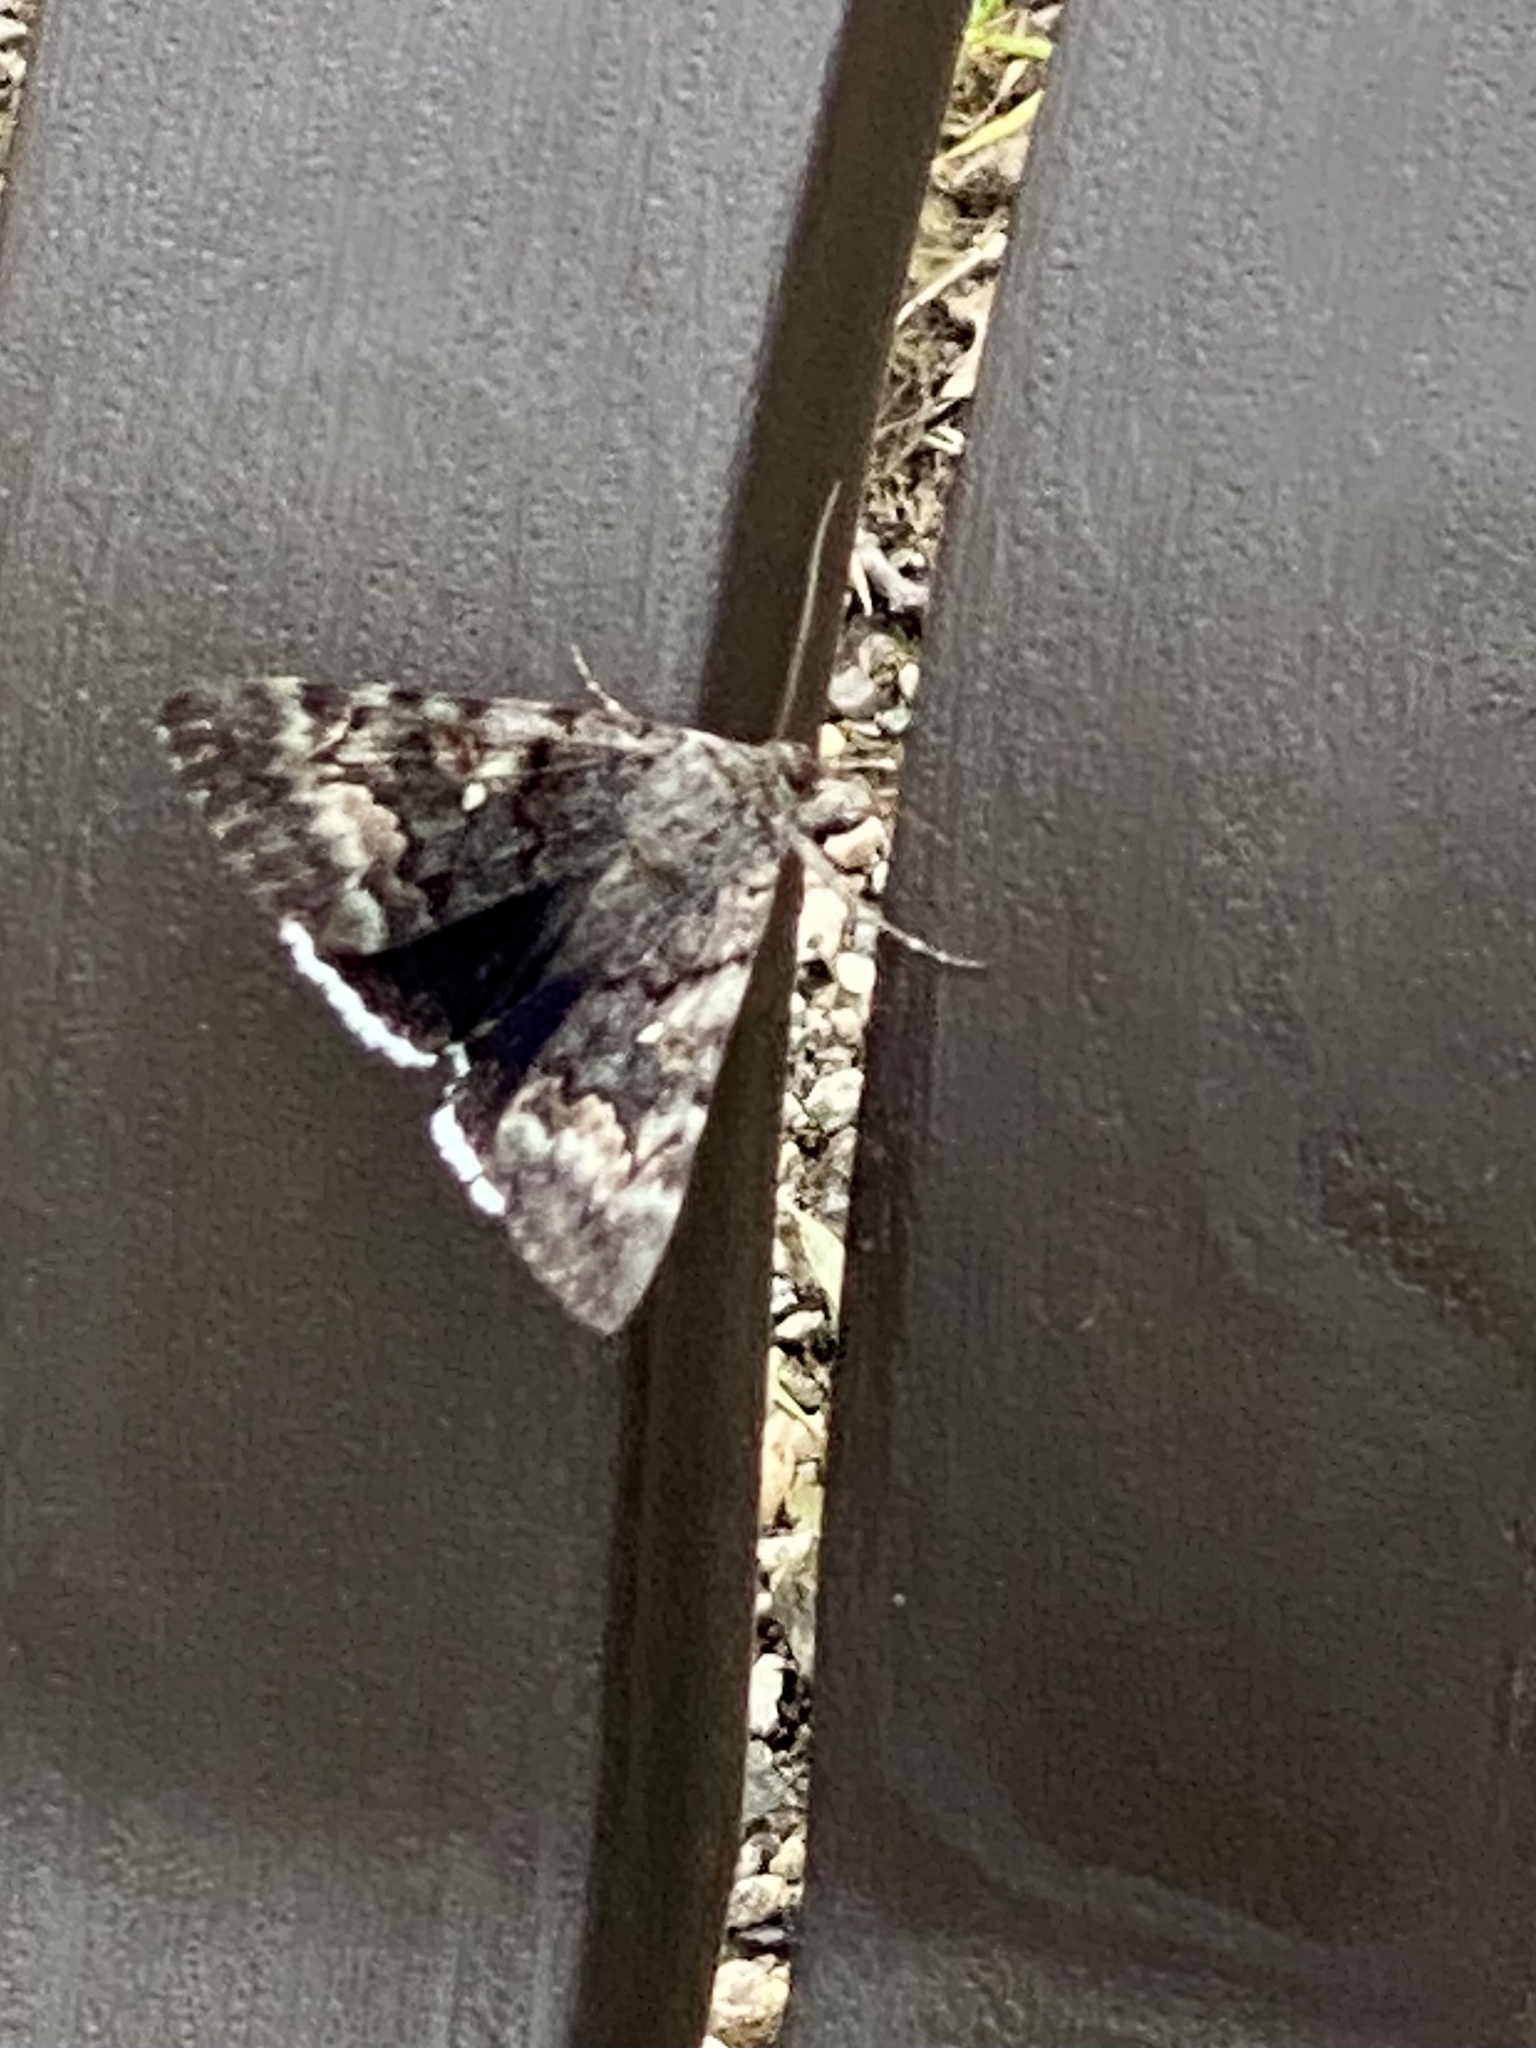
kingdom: Animalia
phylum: Arthropoda
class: Insecta
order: Lepidoptera
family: Erebidae
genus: Catocala
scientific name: Catocala epione
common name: Epione underwing
